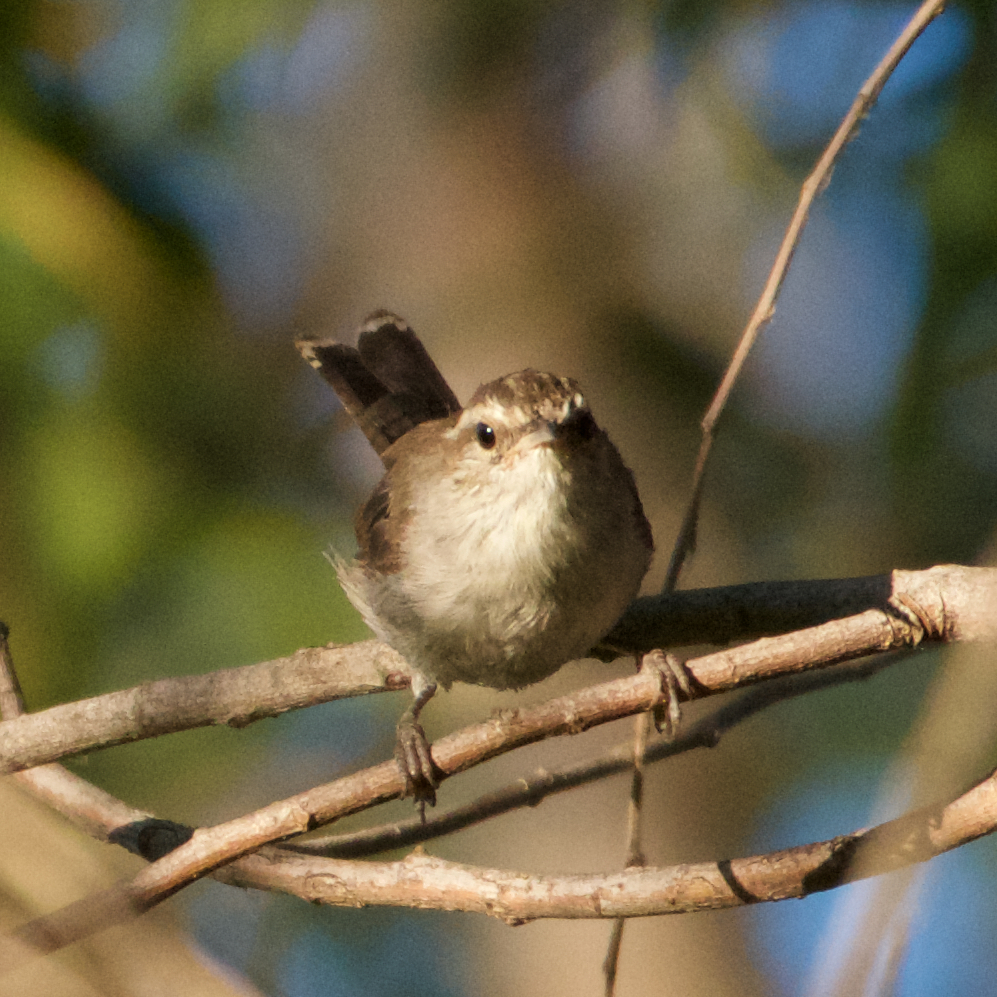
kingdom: Animalia
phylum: Chordata
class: Aves
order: Passeriformes
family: Troglodytidae
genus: Thryomanes
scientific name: Thryomanes bewickii
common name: Bewick's wren
